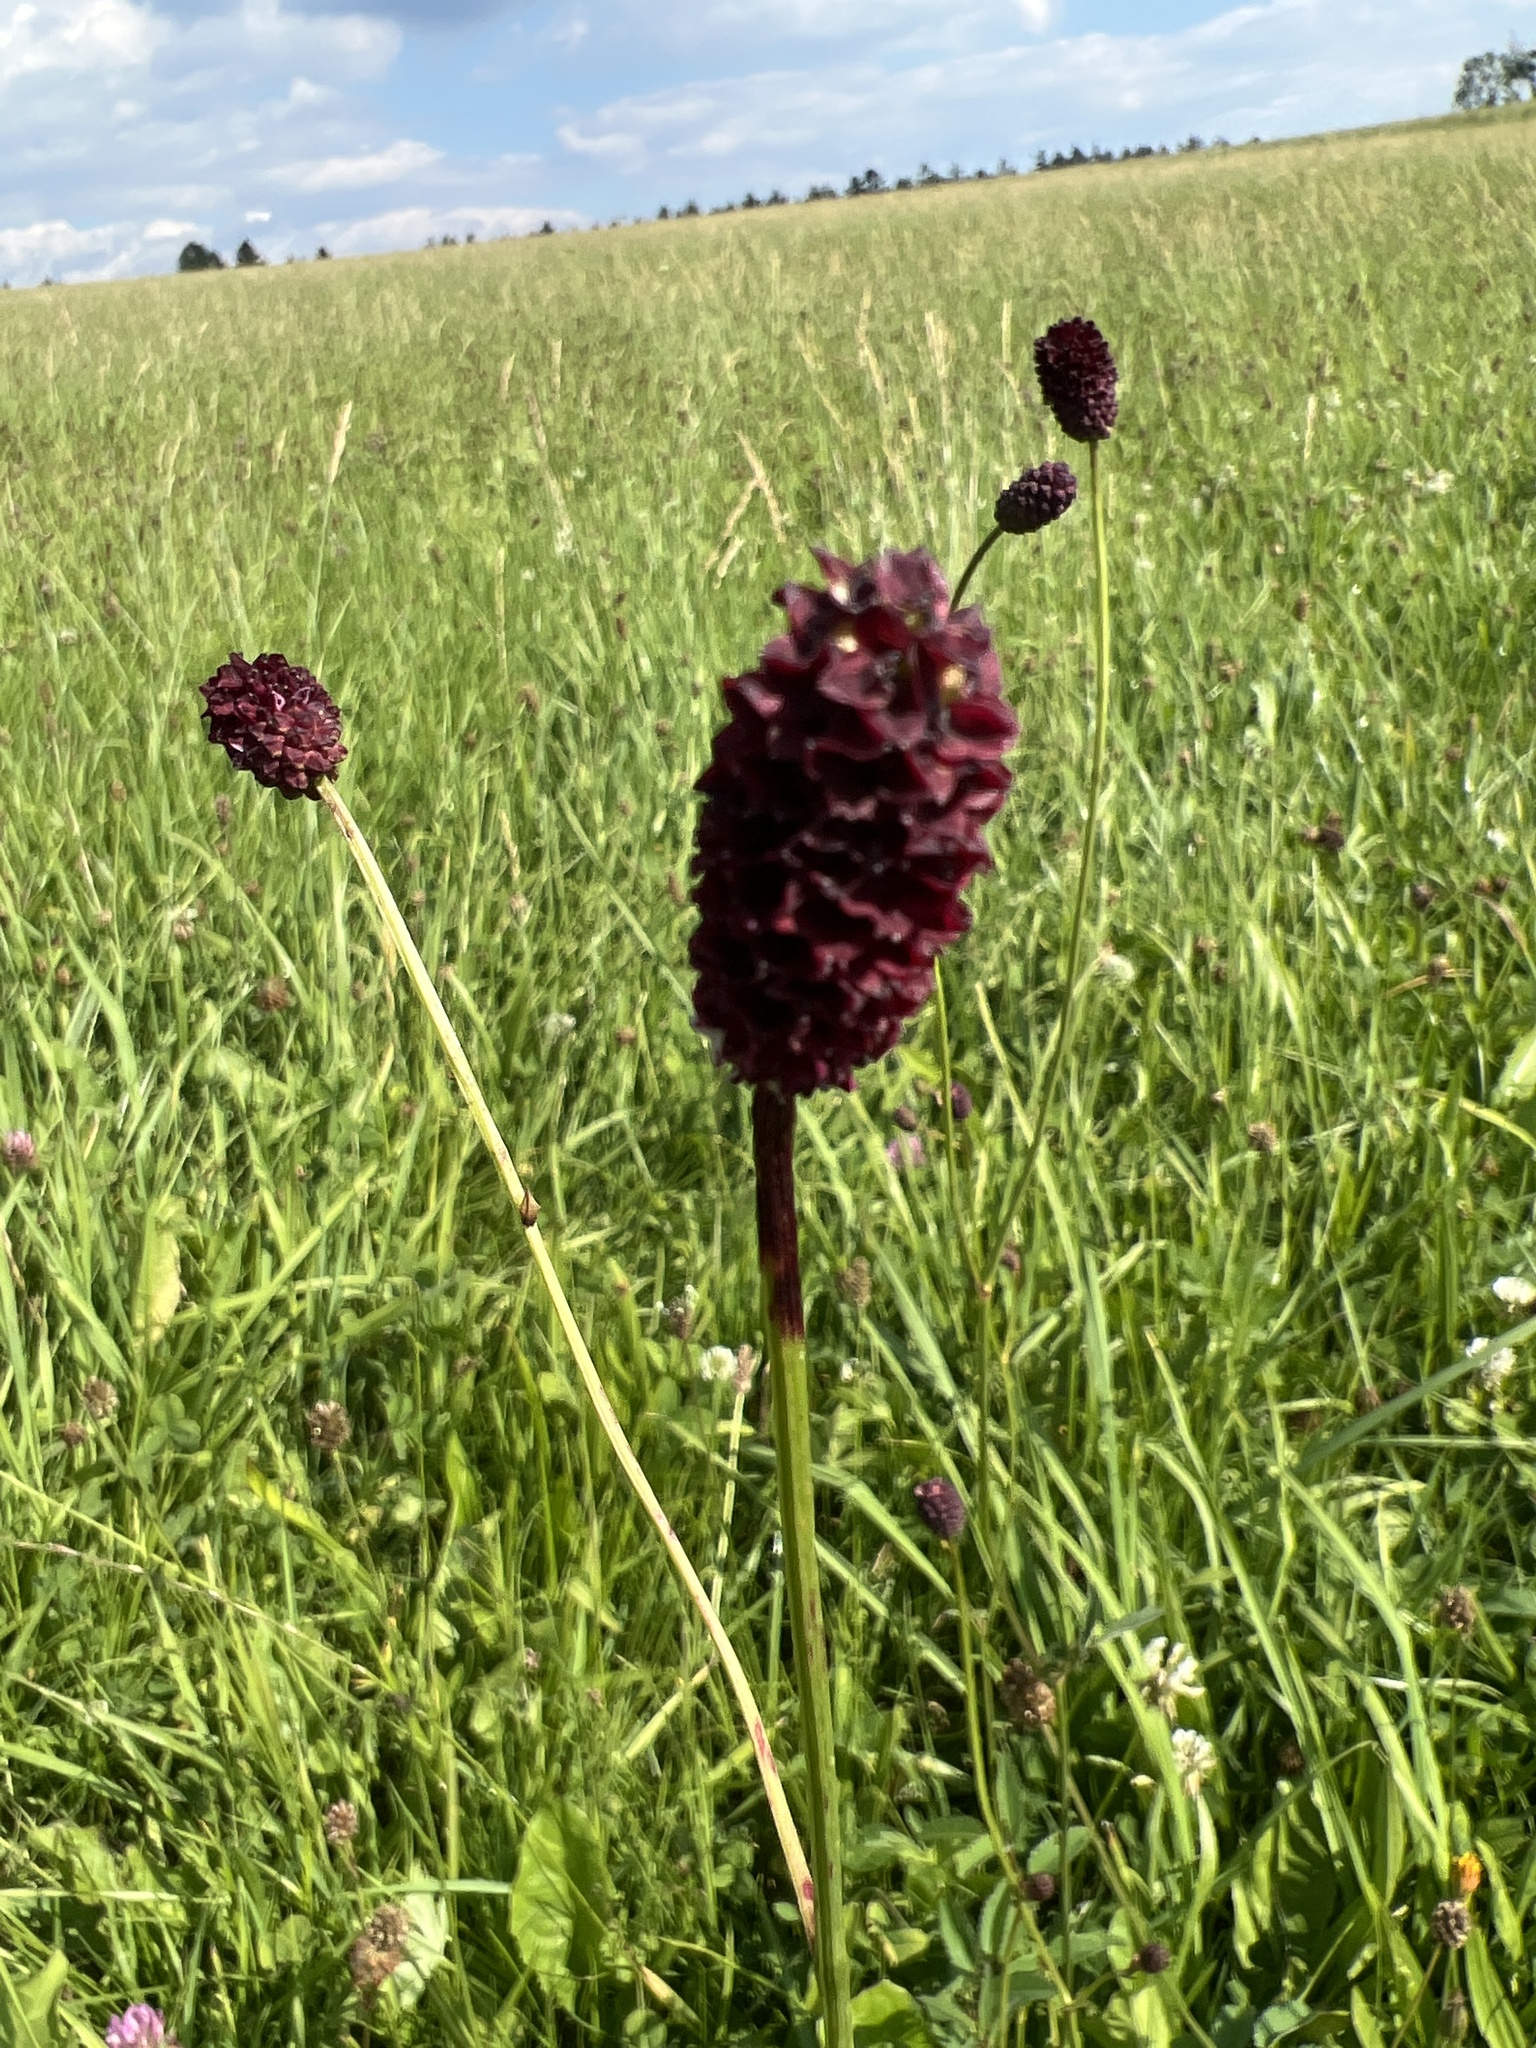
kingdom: Plantae
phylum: Tracheophyta
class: Magnoliopsida
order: Rosales
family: Rosaceae
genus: Sanguisorba
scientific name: Sanguisorba officinalis
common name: Great burnet
